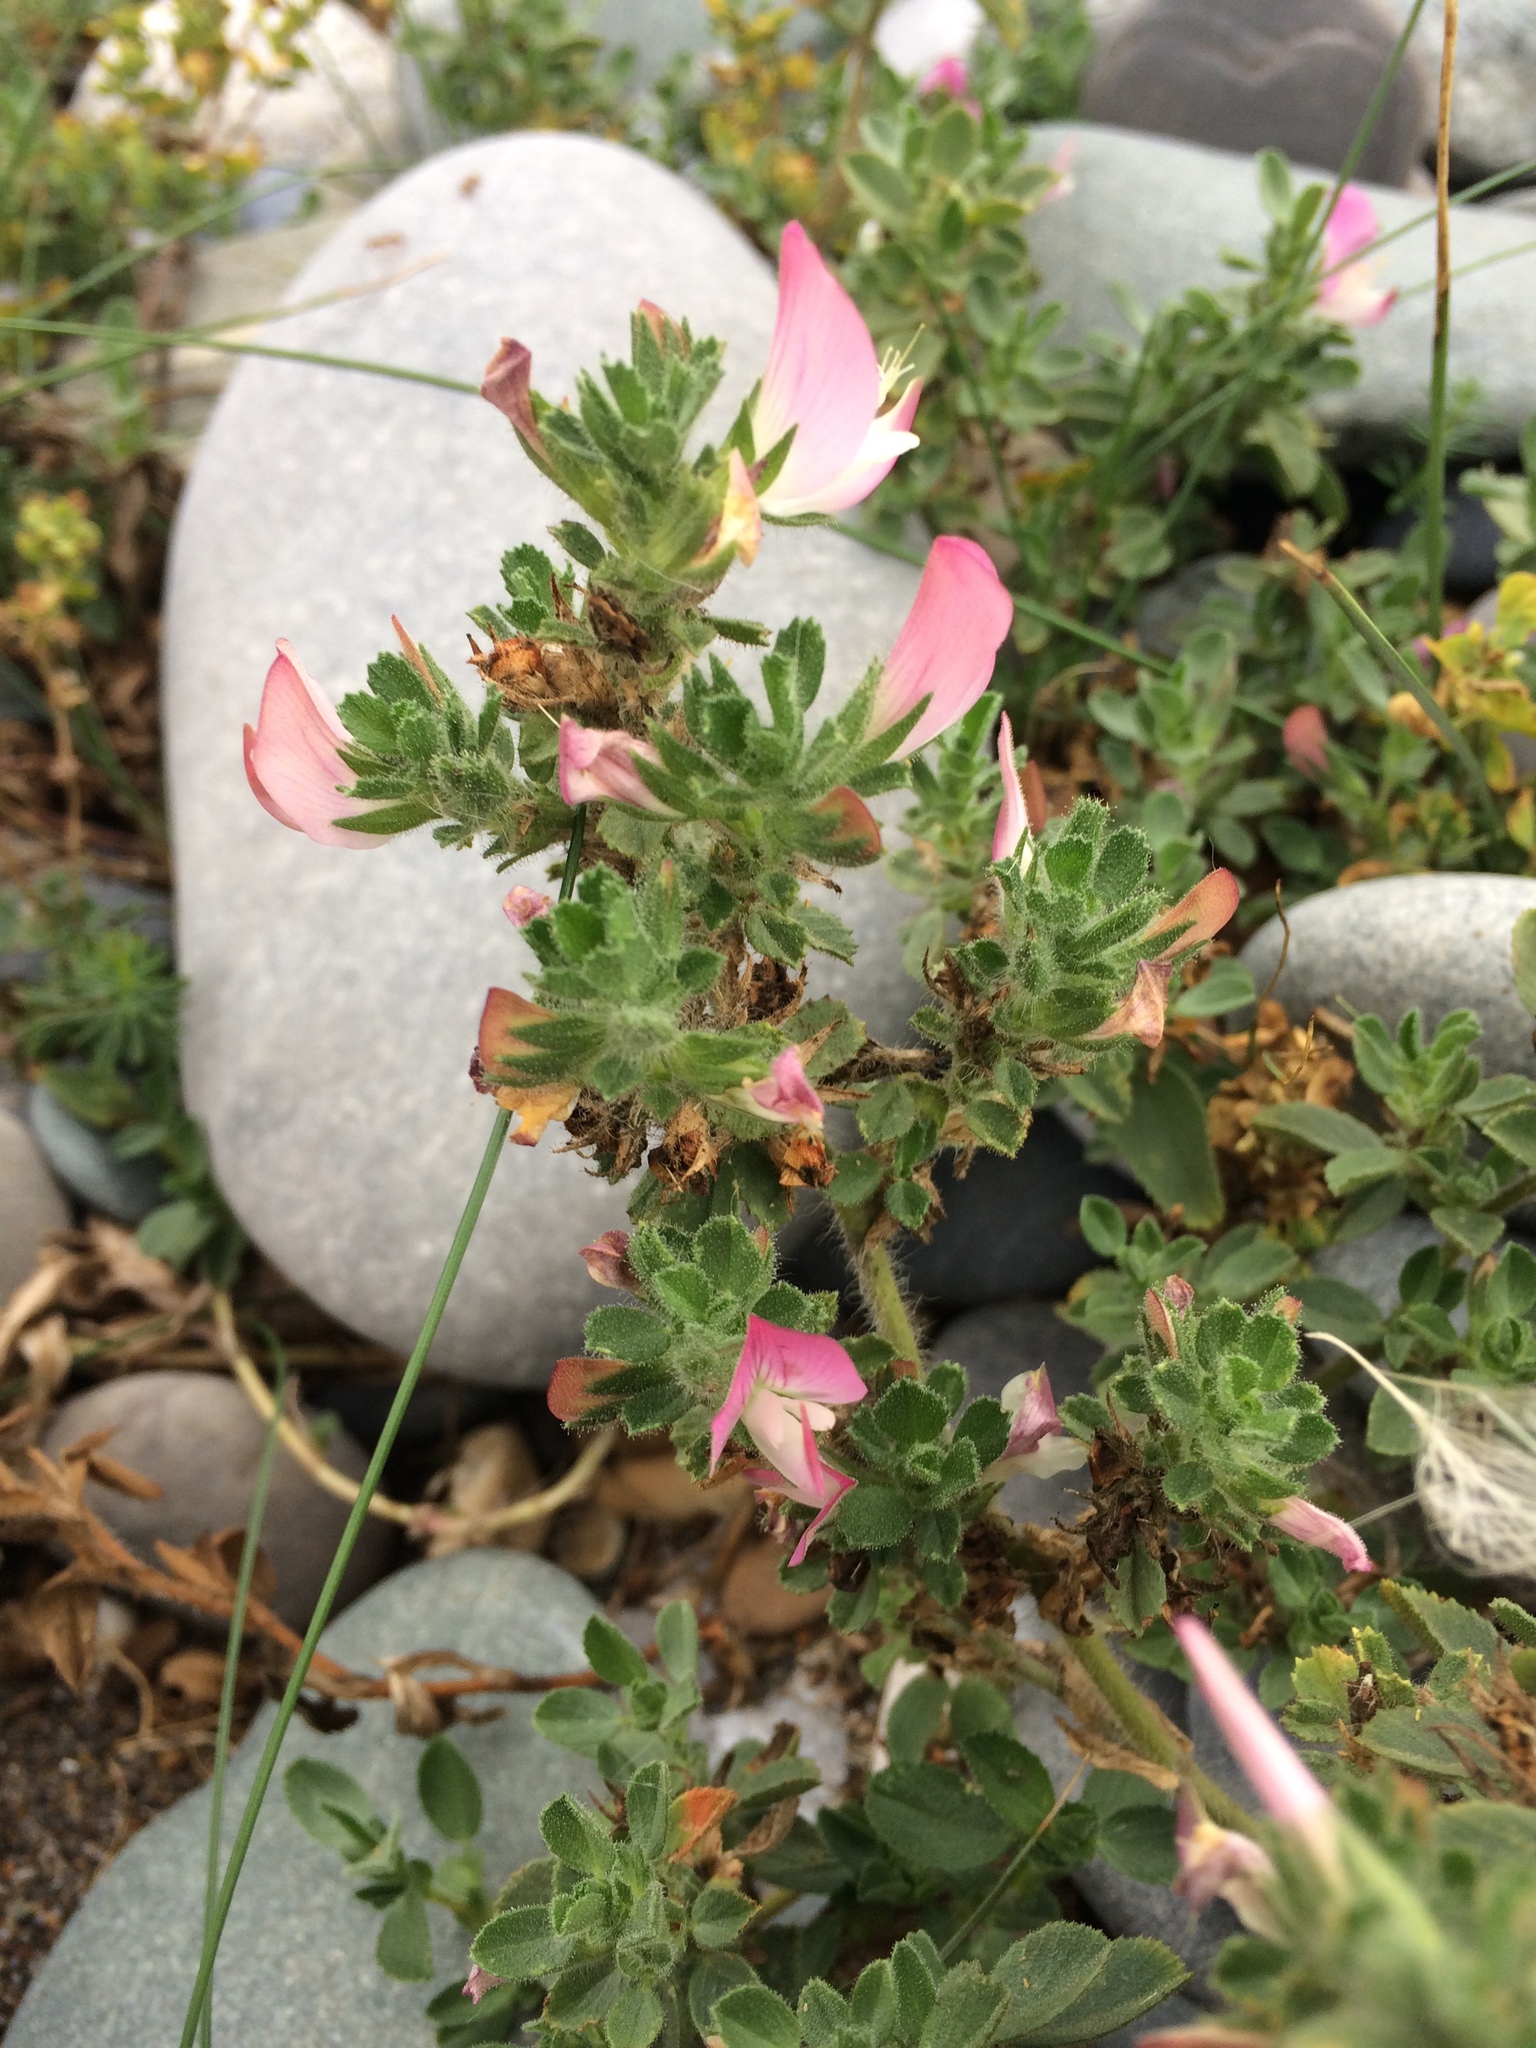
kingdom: Plantae
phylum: Tracheophyta
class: Magnoliopsida
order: Fabales
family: Fabaceae
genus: Ononis
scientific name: Ononis spinosa
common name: Spiny restharrow
